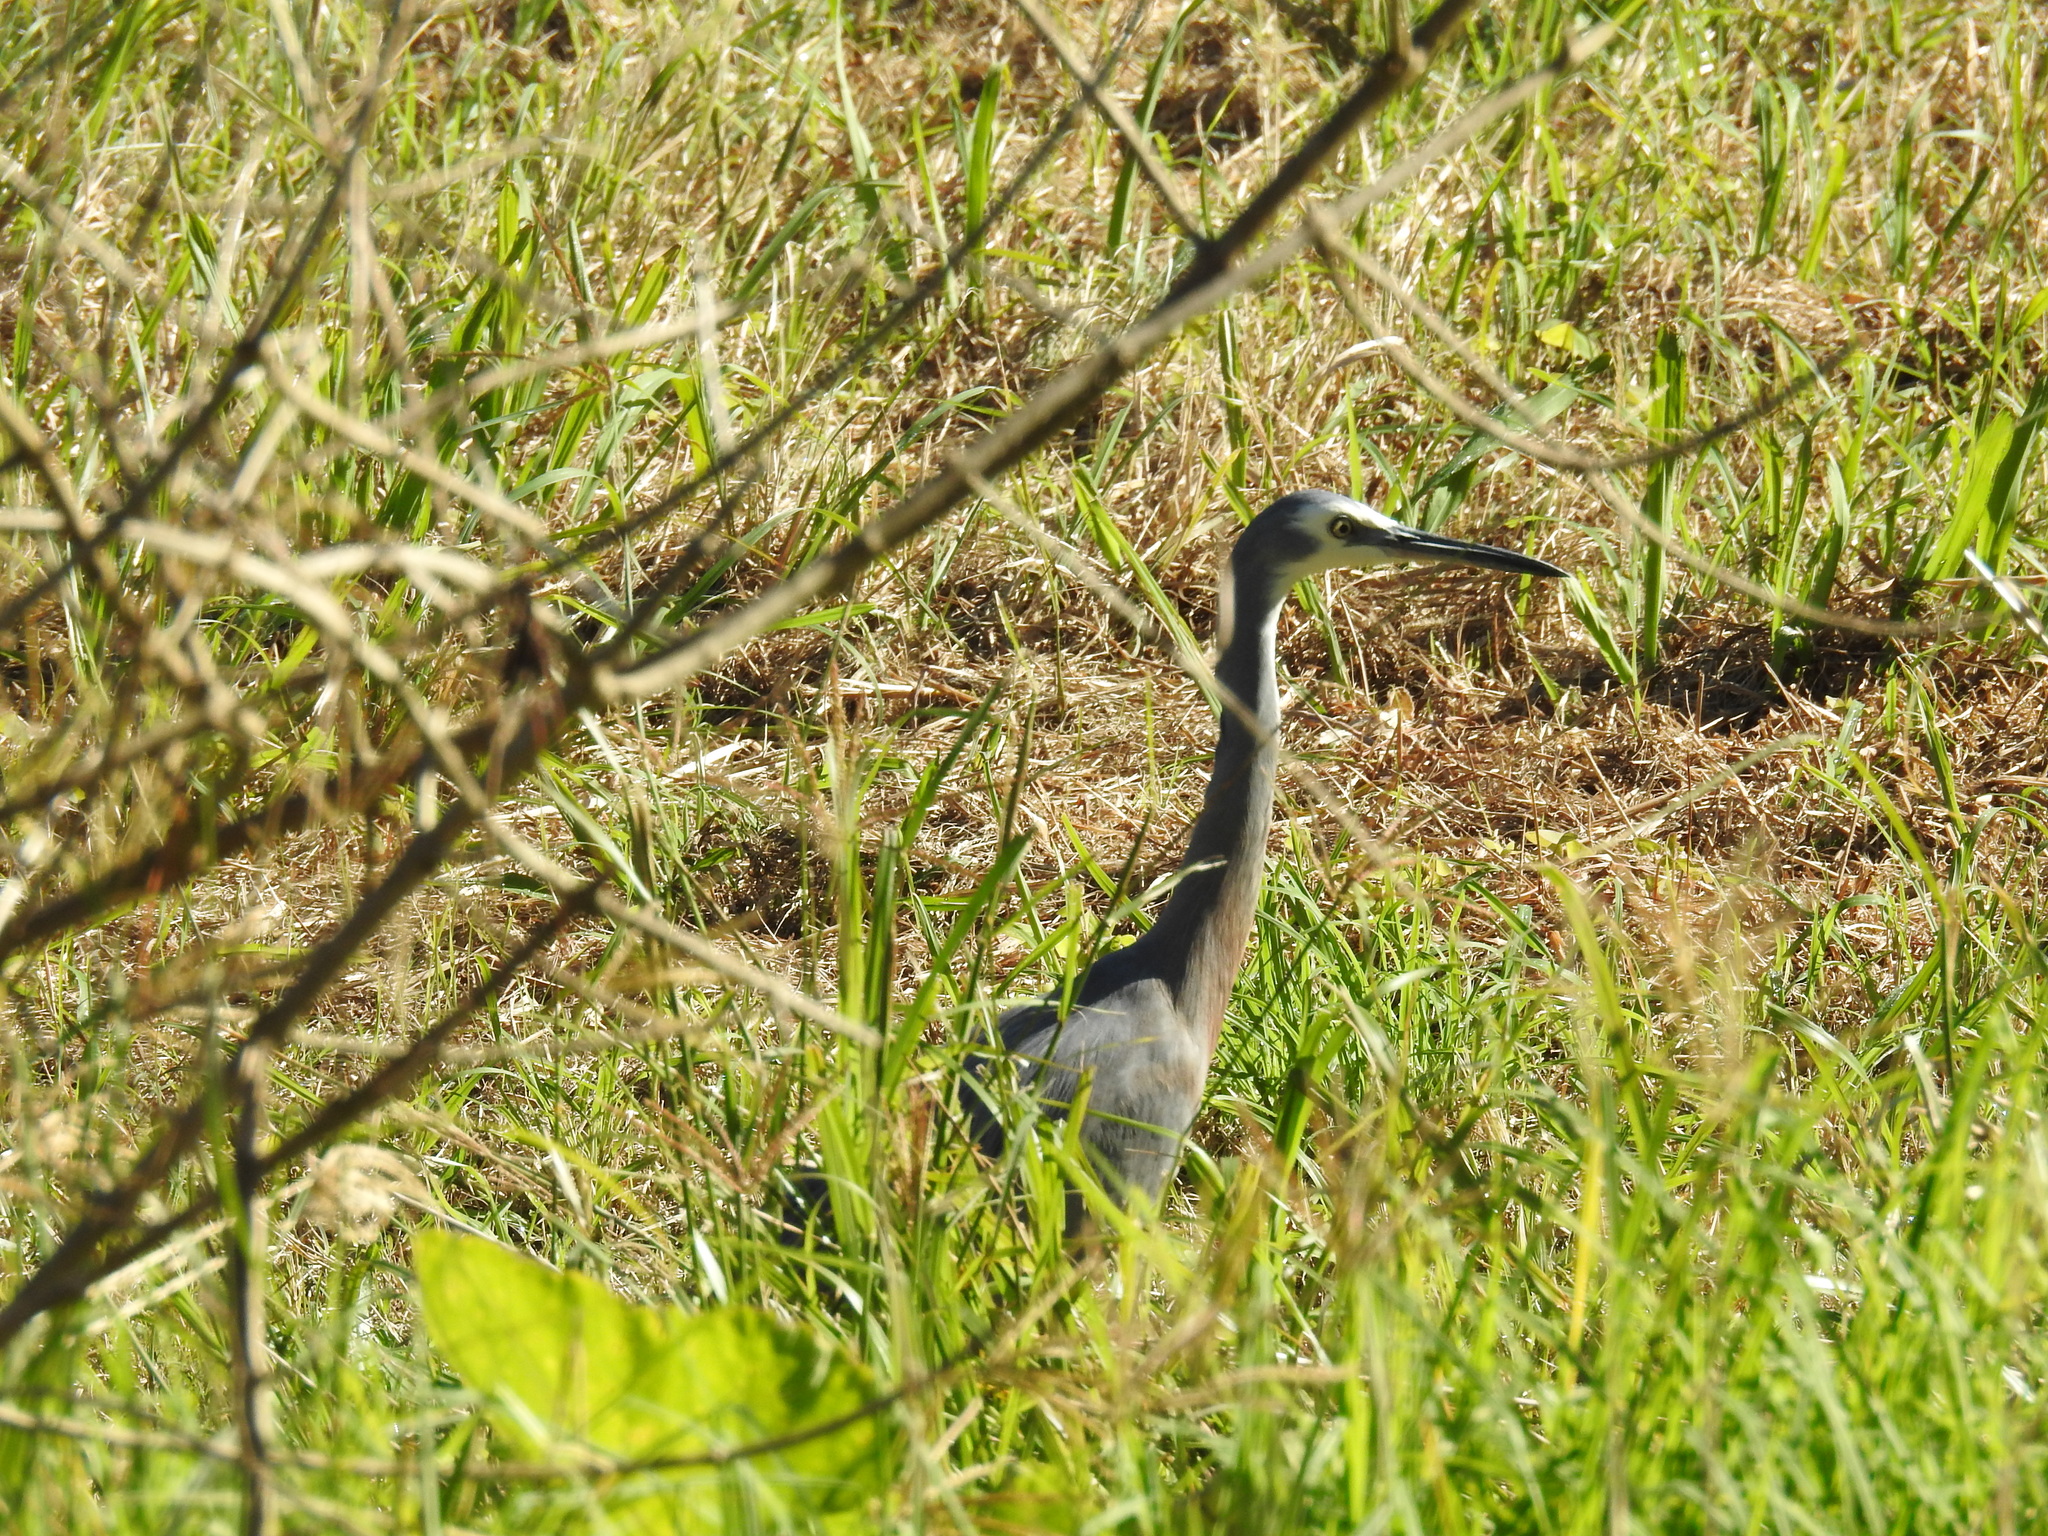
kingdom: Animalia
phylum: Chordata
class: Aves
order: Pelecaniformes
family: Ardeidae
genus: Egretta
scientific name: Egretta novaehollandiae
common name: White-faced heron
